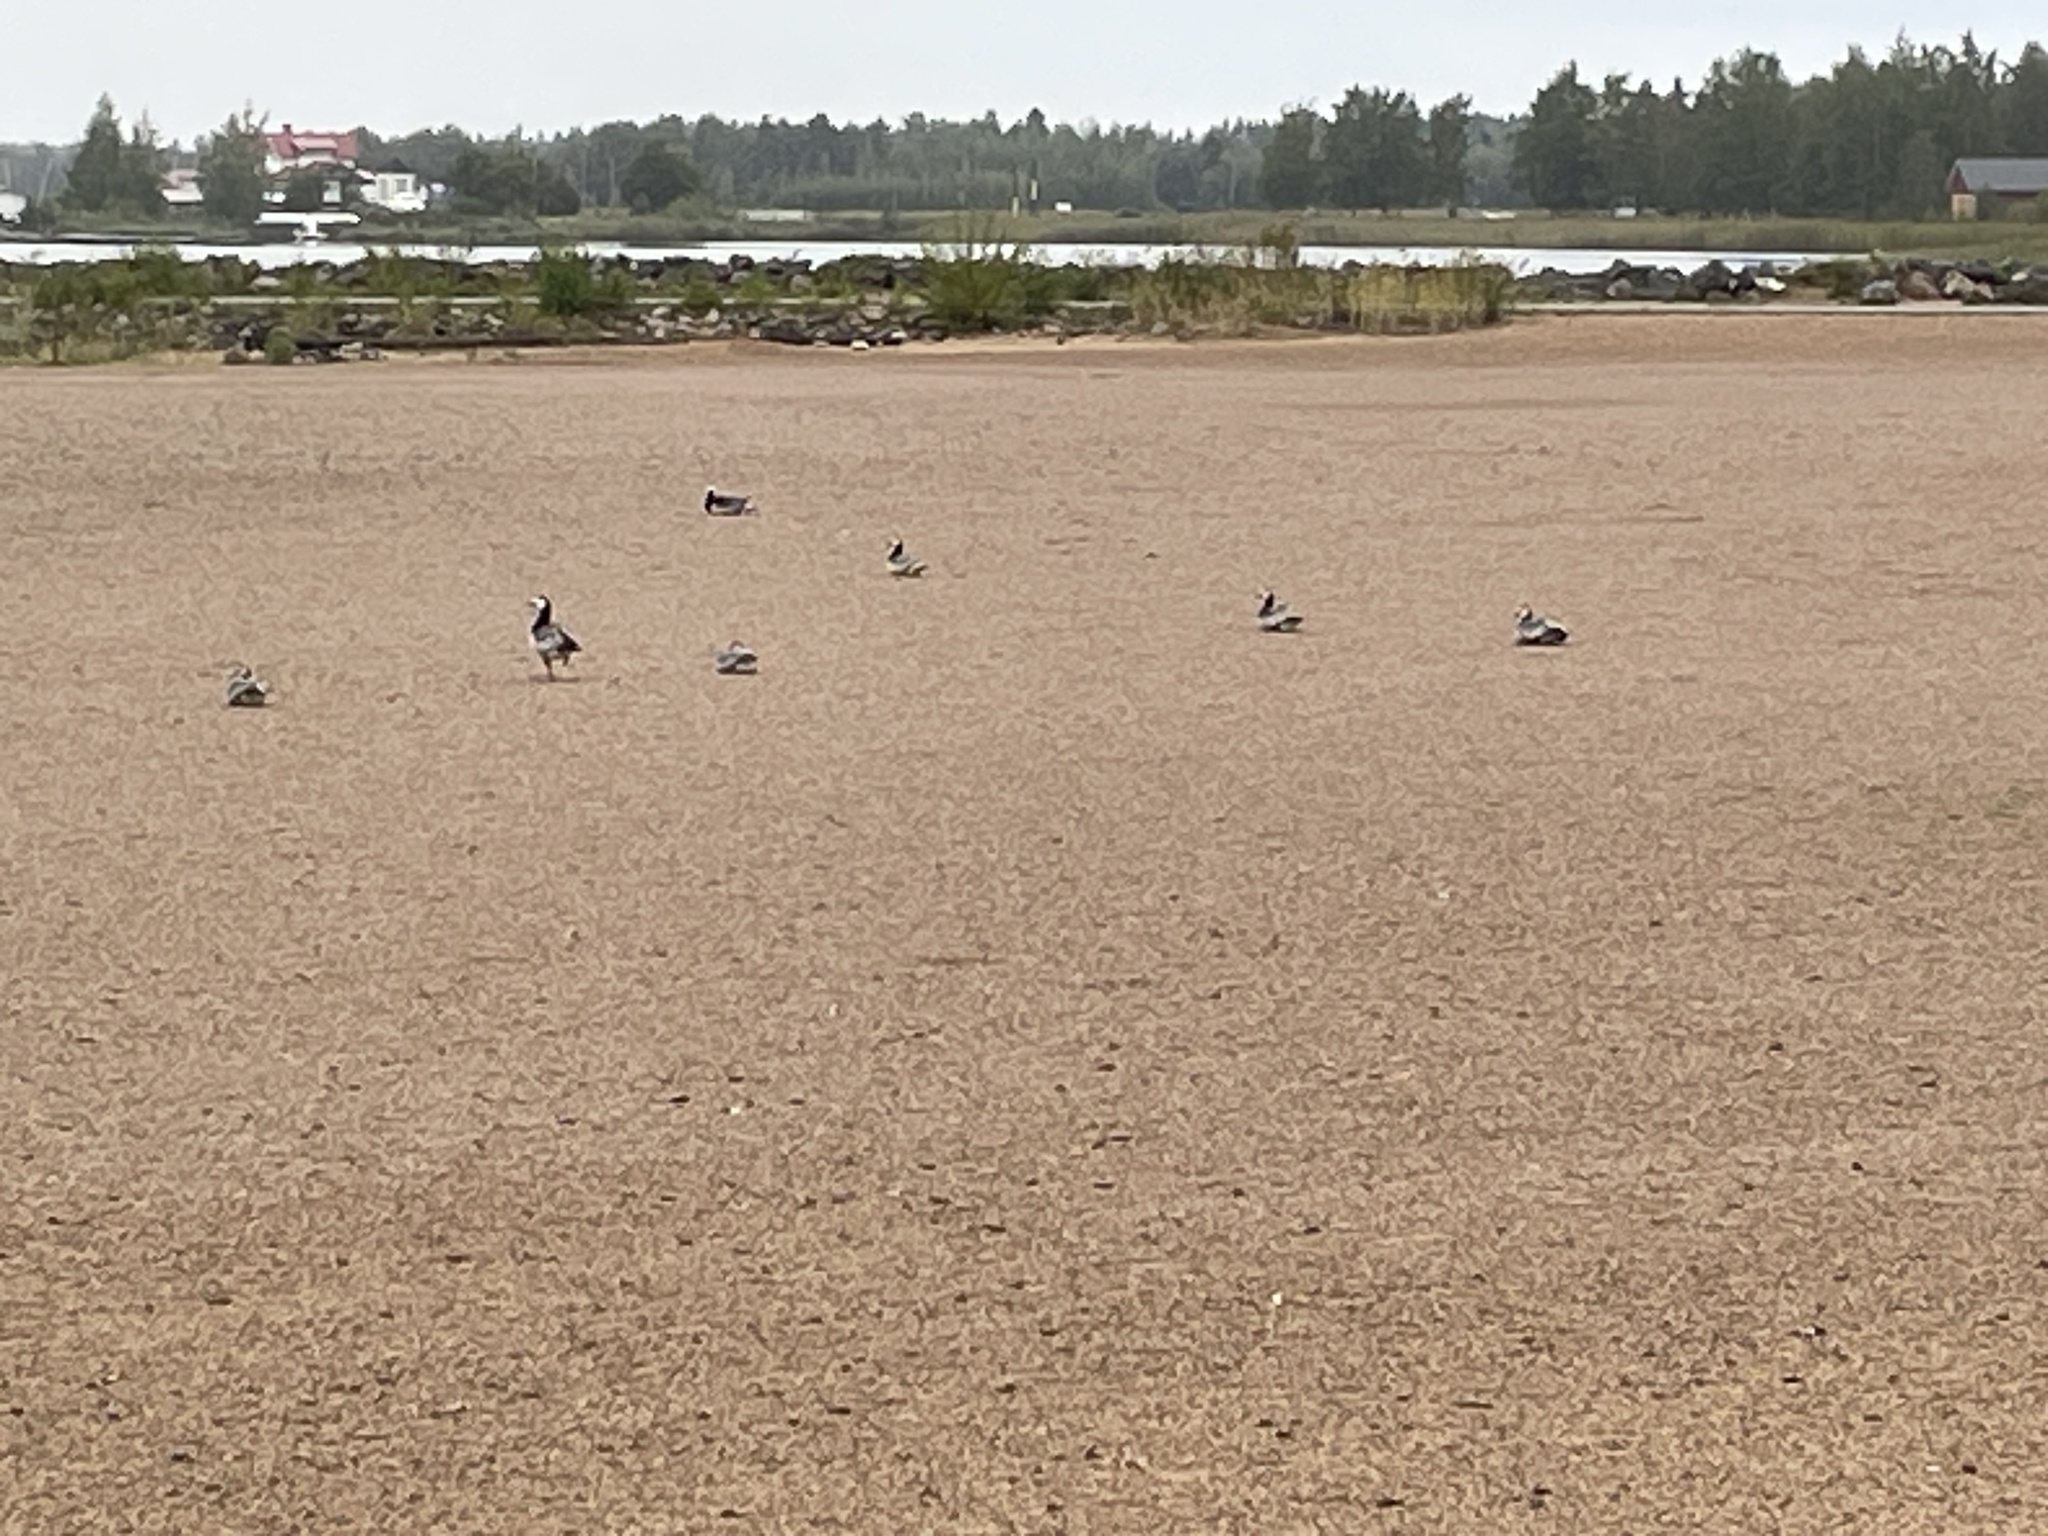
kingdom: Animalia
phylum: Chordata
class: Aves
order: Anseriformes
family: Anatidae
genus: Branta
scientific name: Branta leucopsis
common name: Barnacle goose
